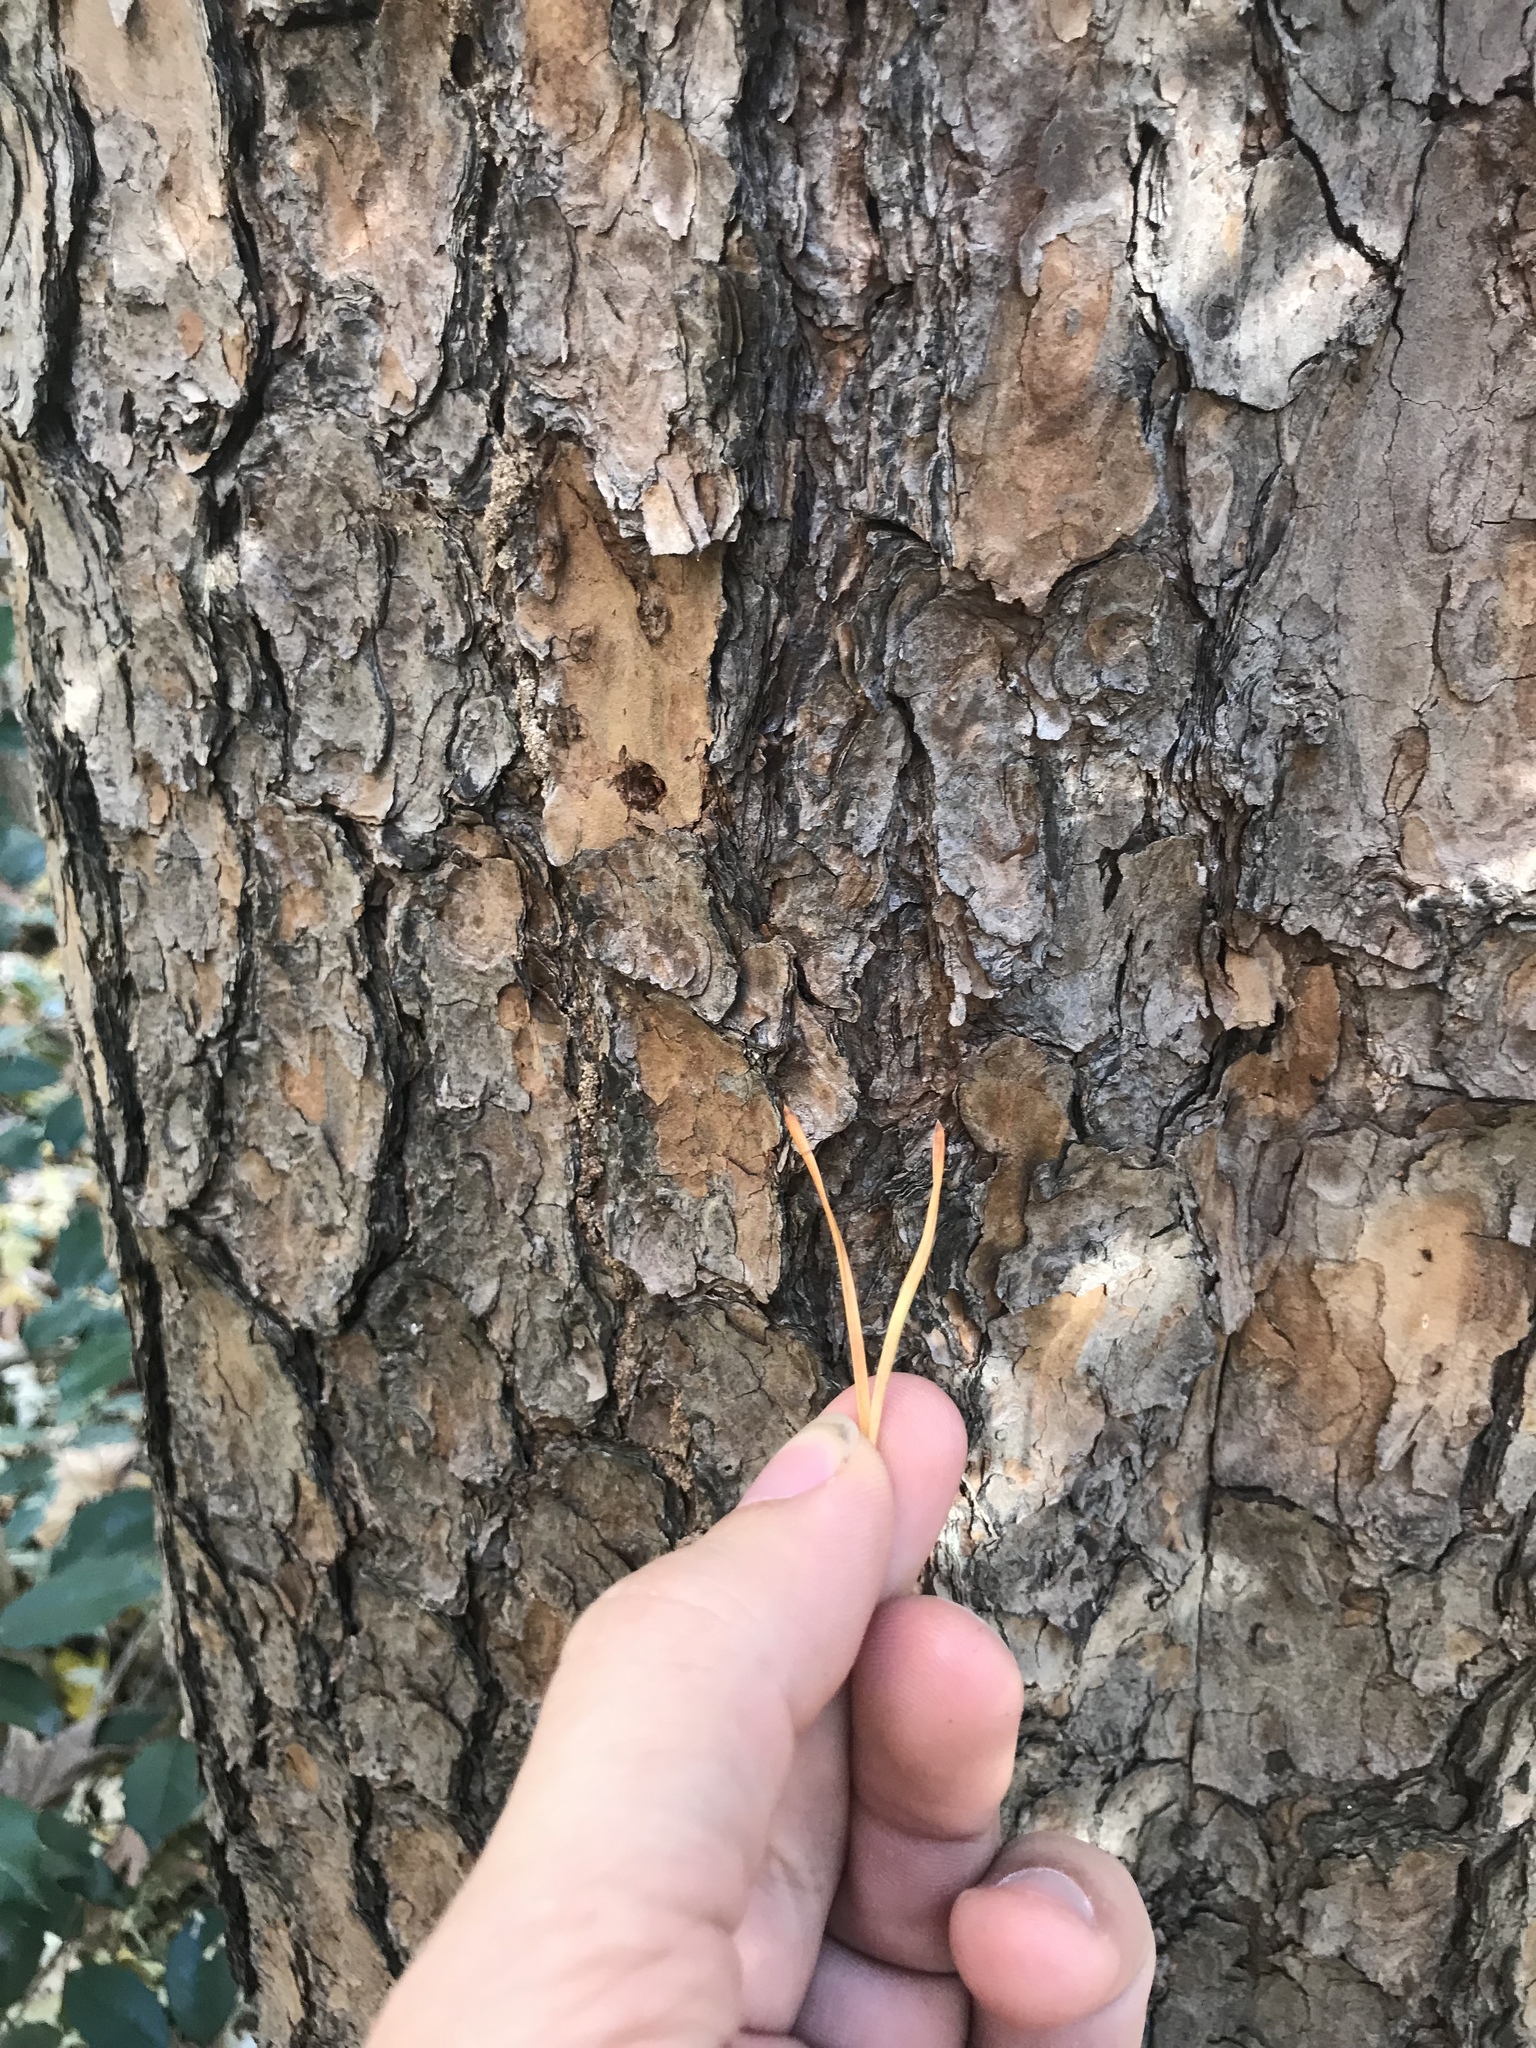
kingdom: Plantae
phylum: Tracheophyta
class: Pinopsida
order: Pinales
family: Pinaceae
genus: Pinus
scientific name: Pinus virginiana
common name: Scrub pine
